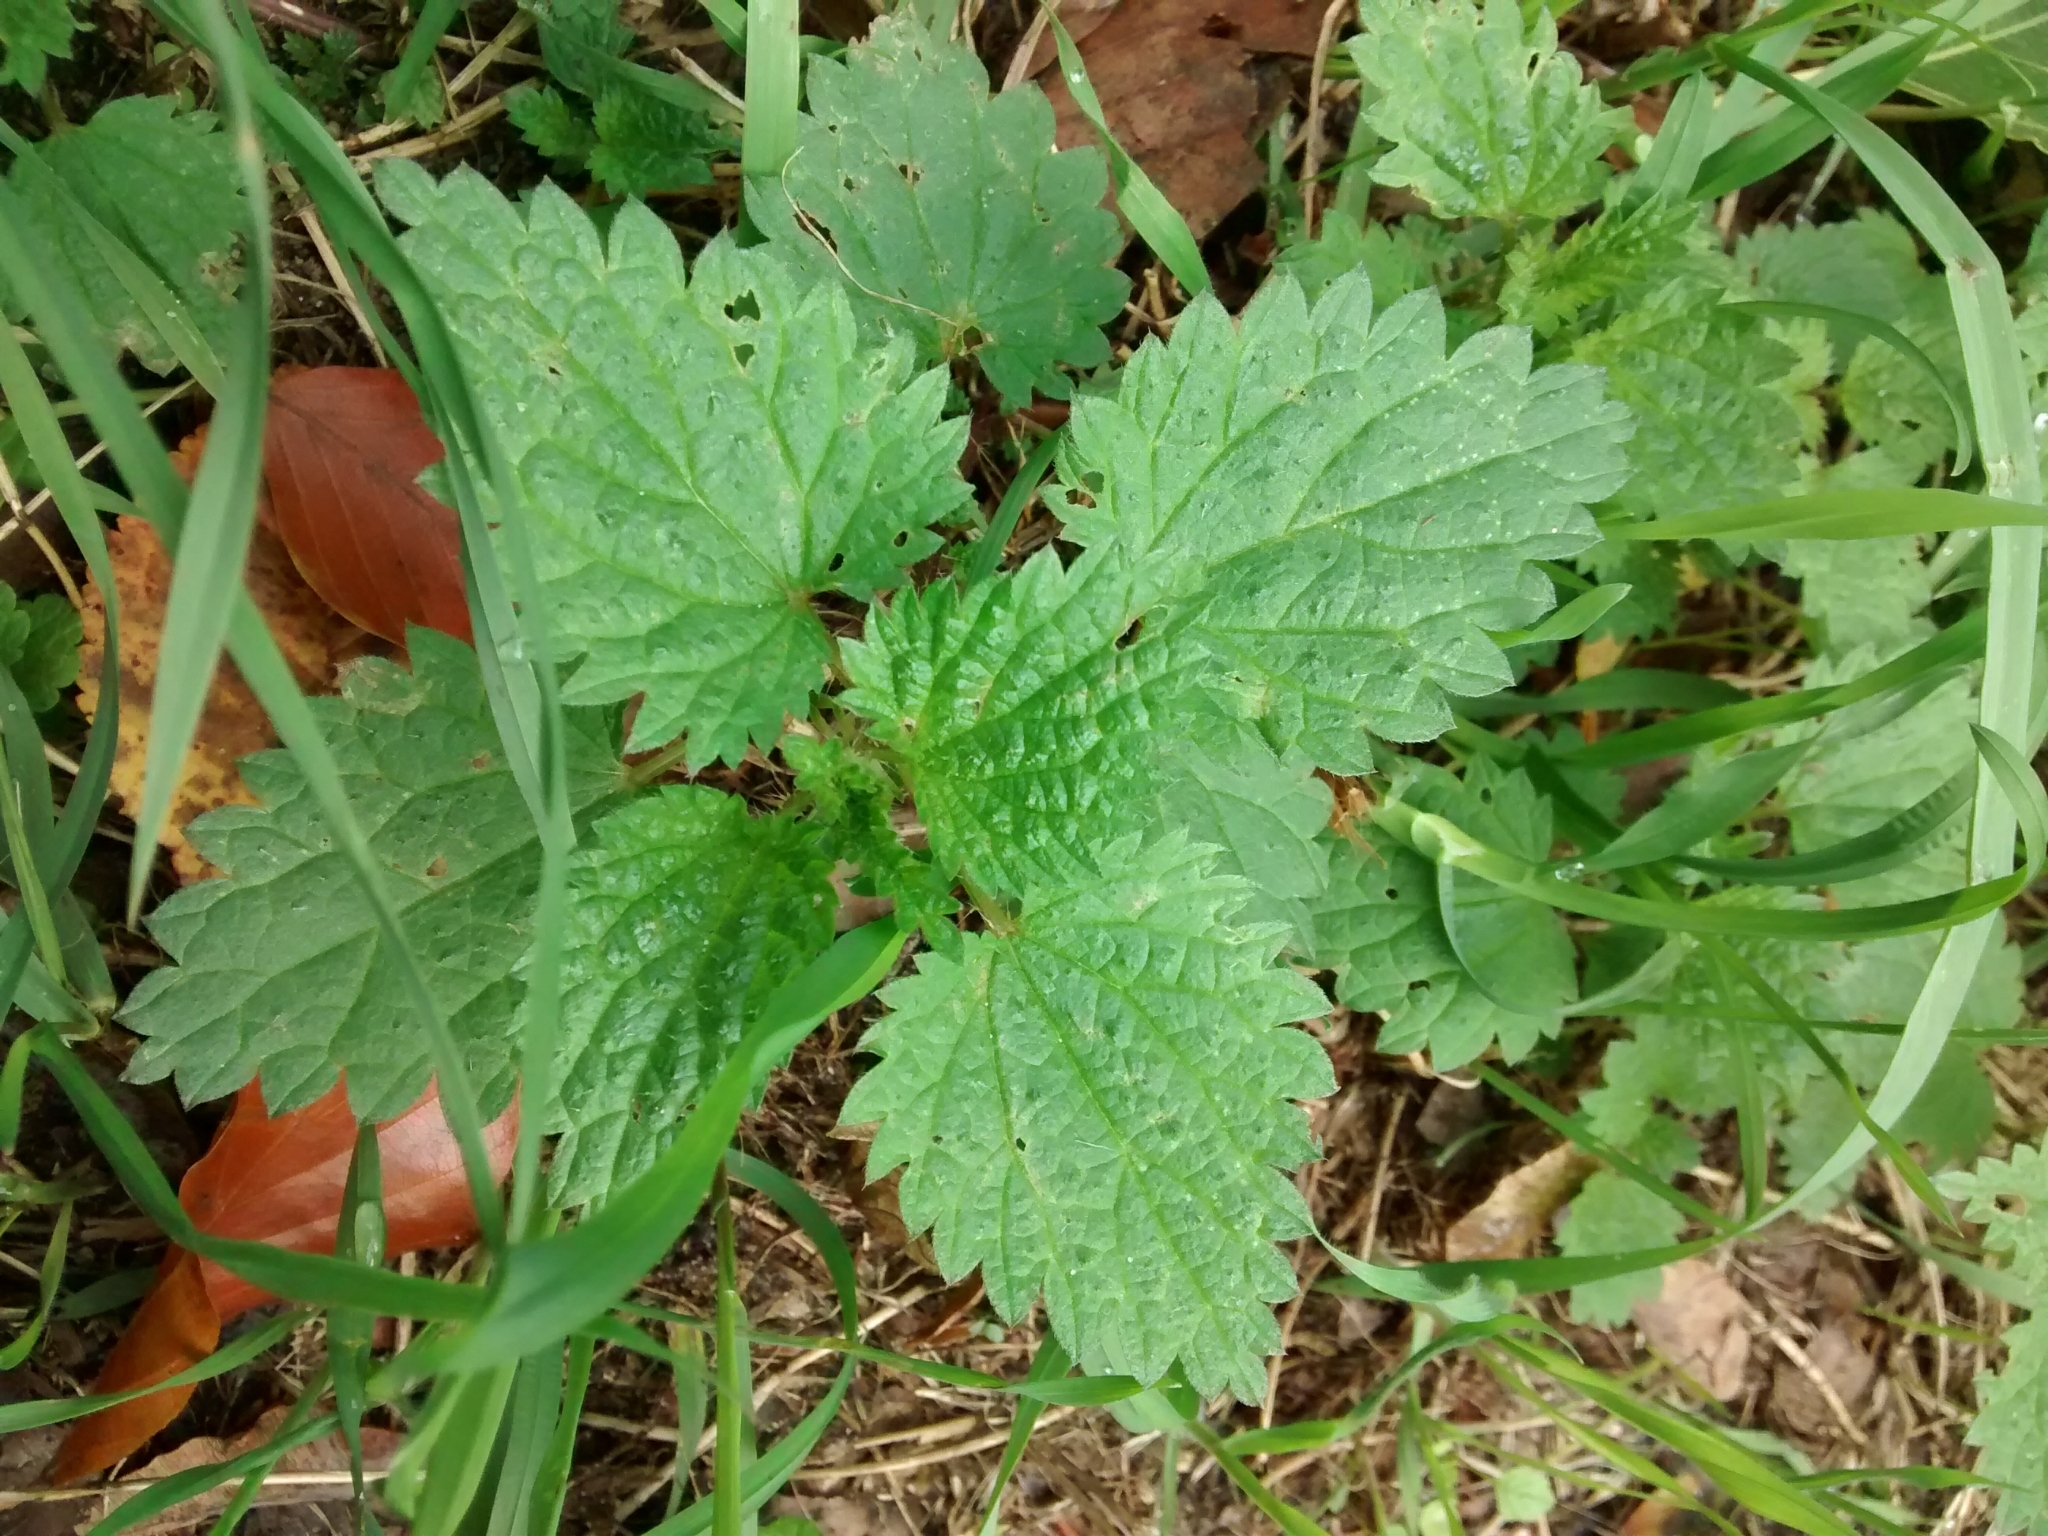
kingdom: Plantae
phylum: Tracheophyta
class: Magnoliopsida
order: Rosales
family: Urticaceae
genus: Urtica
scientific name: Urtica dioica
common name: Common nettle
